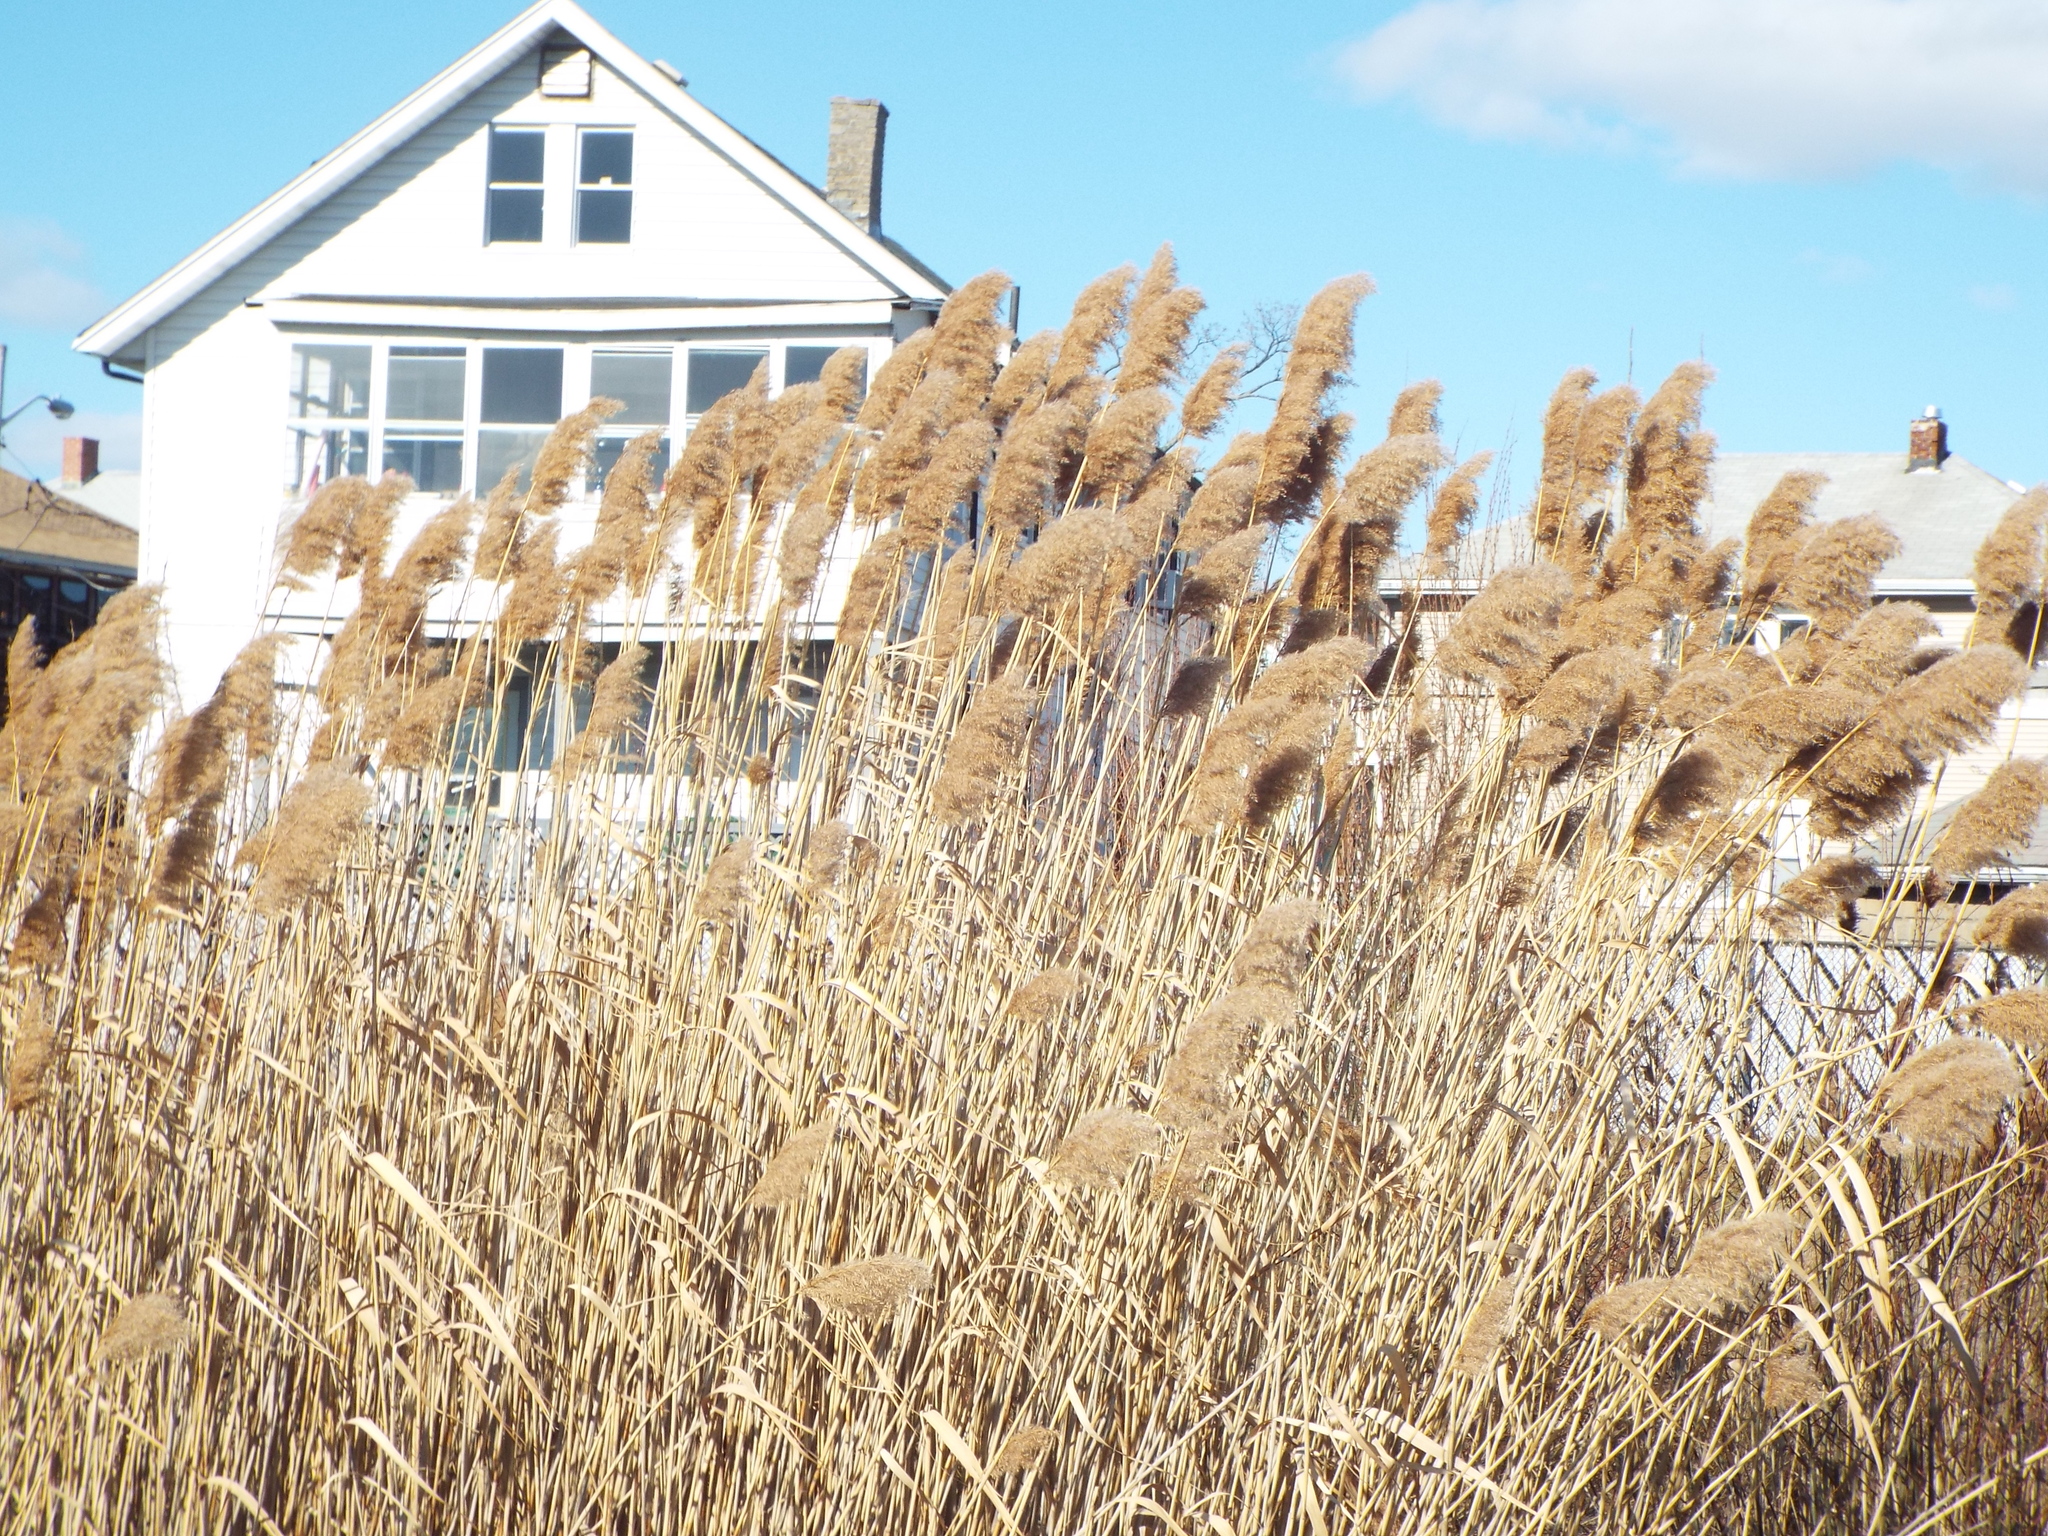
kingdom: Plantae
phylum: Tracheophyta
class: Liliopsida
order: Poales
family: Poaceae
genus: Phragmites
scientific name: Phragmites australis
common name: Common reed
